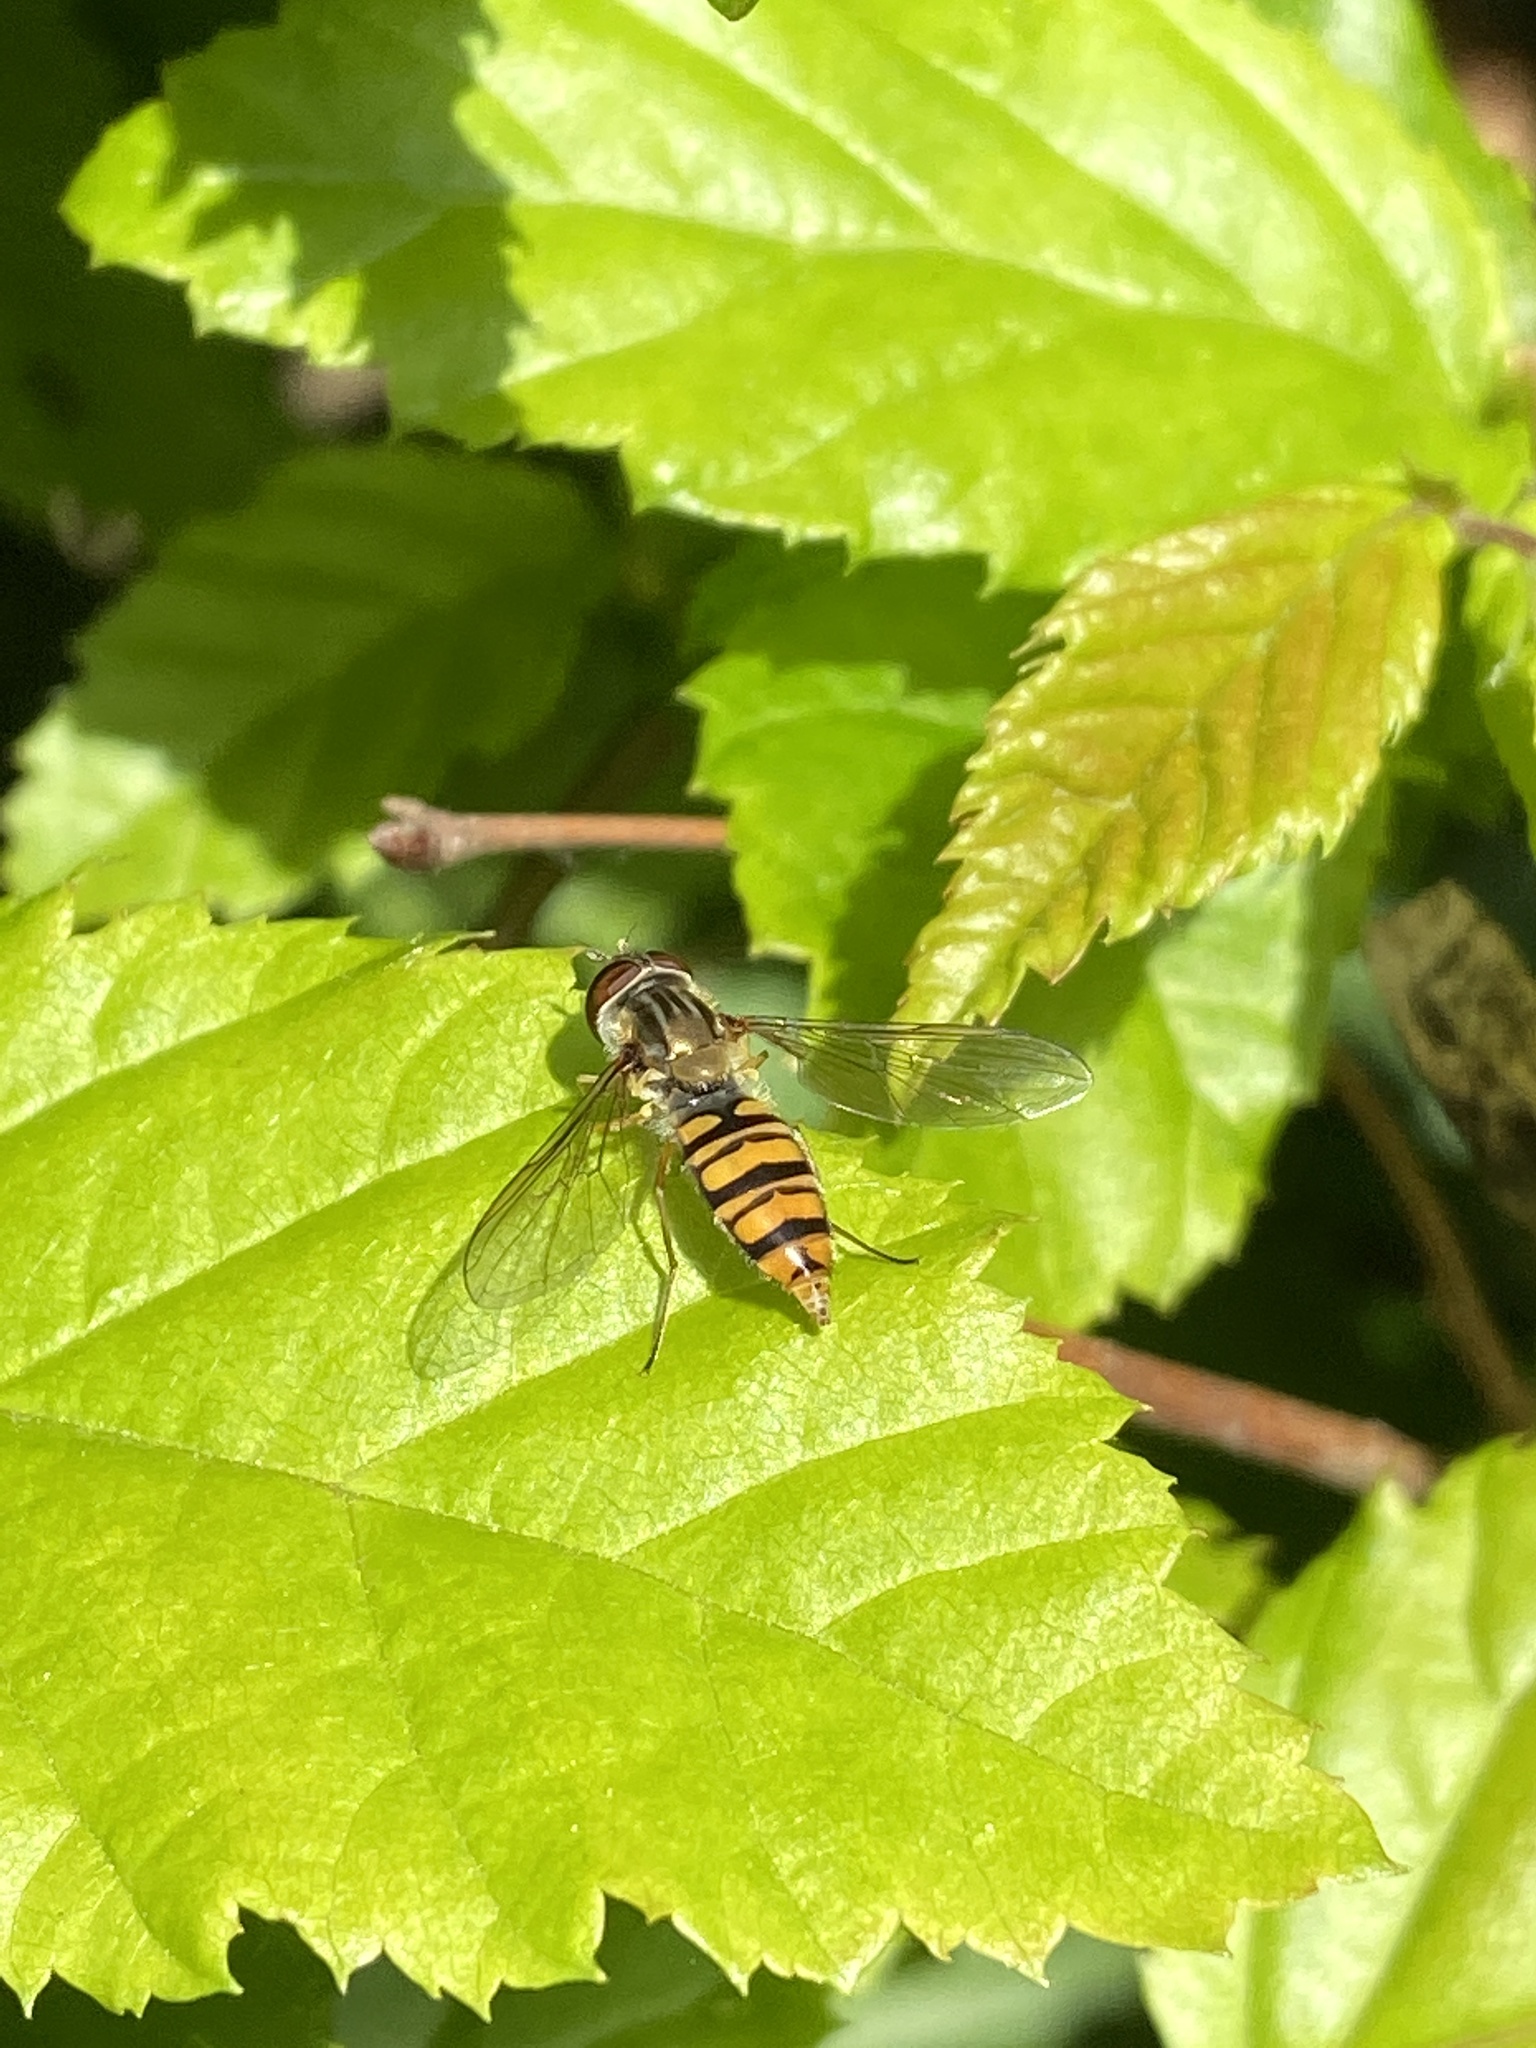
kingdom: Animalia
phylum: Arthropoda
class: Insecta
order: Diptera
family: Syrphidae
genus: Episyrphus
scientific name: Episyrphus balteatus
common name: Marmalade hoverfly
